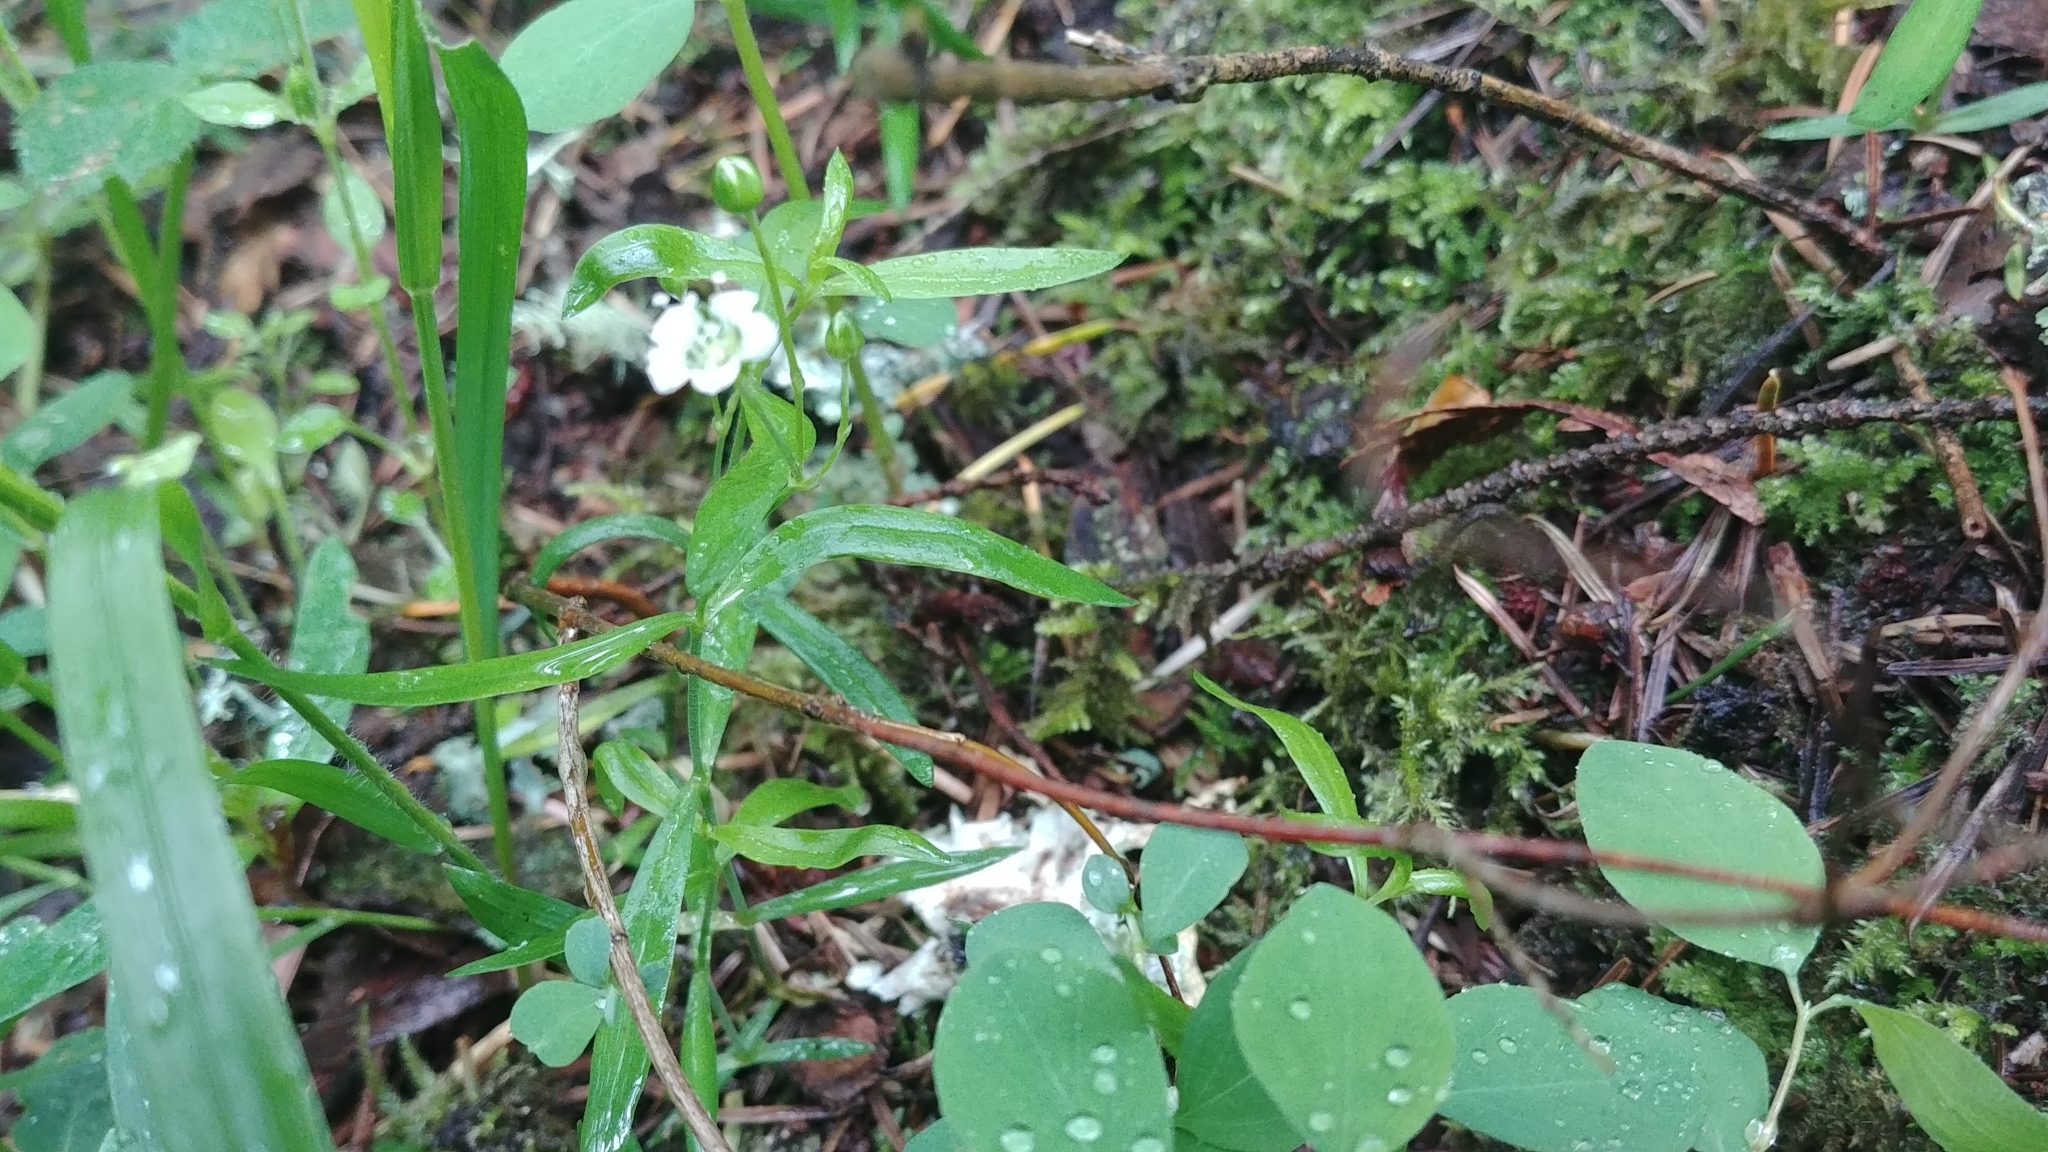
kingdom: Plantae
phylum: Tracheophyta
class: Magnoliopsida
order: Caryophyllales
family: Caryophyllaceae
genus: Moehringia
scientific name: Moehringia macrophylla
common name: Big-leaf sandwort
